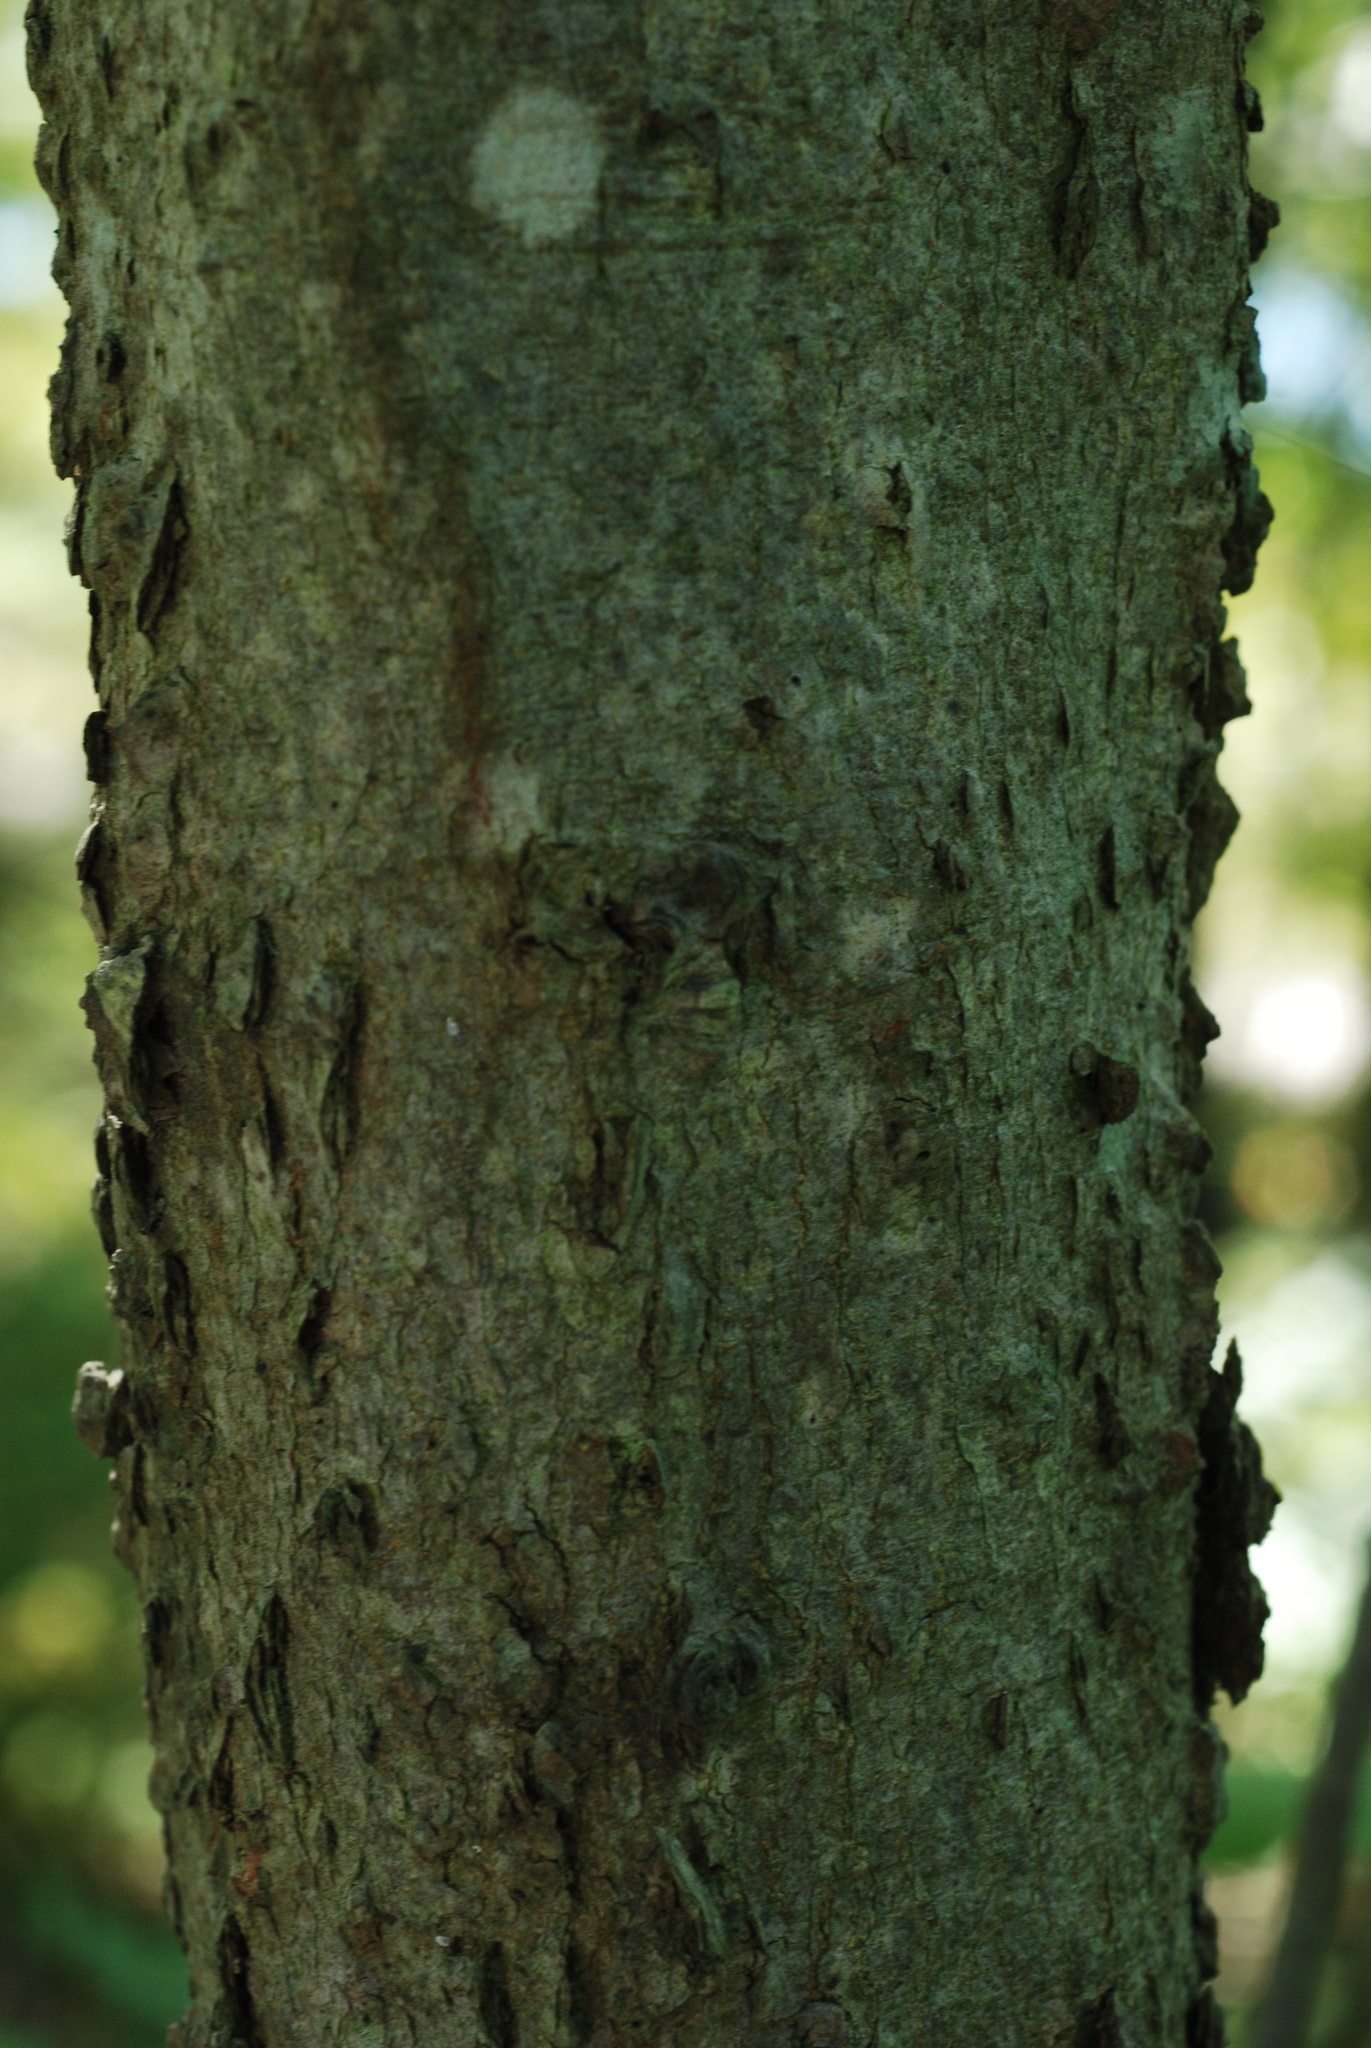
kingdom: Plantae
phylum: Tracheophyta
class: Magnoliopsida
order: Rosales
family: Cannabaceae
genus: Celtis
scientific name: Celtis tenuifolia
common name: Georgia hackberry
